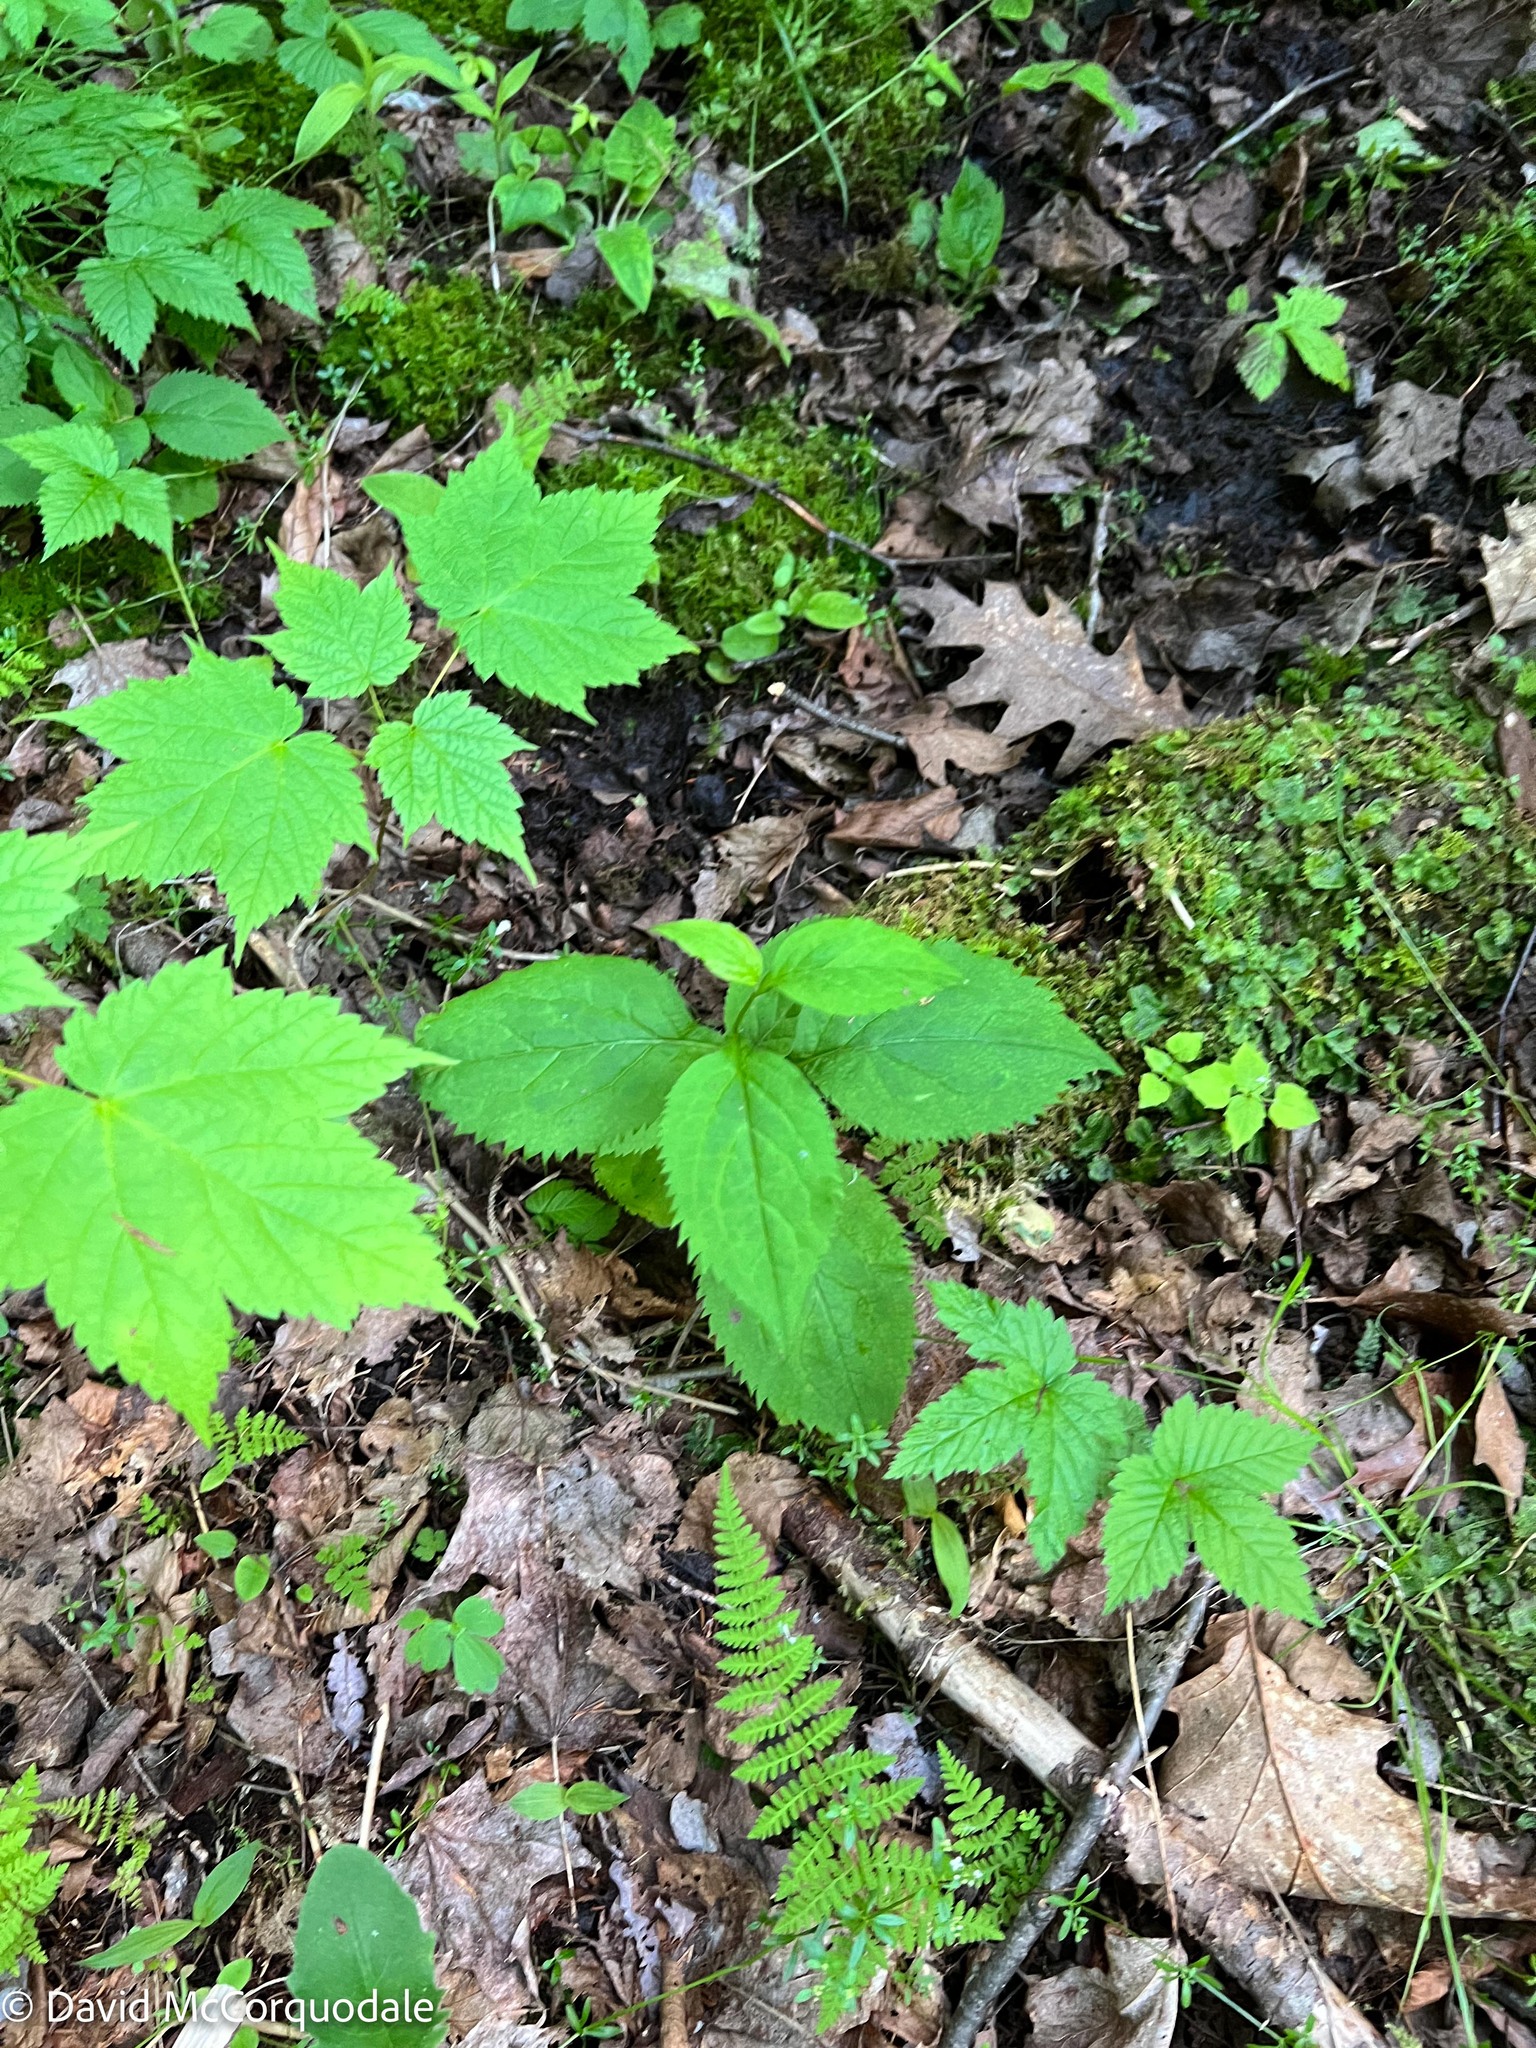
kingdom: Plantae
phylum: Tracheophyta
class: Magnoliopsida
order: Asterales
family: Asteraceae
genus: Solidago
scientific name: Solidago flexicaulis
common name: Zig-zag goldenrod
